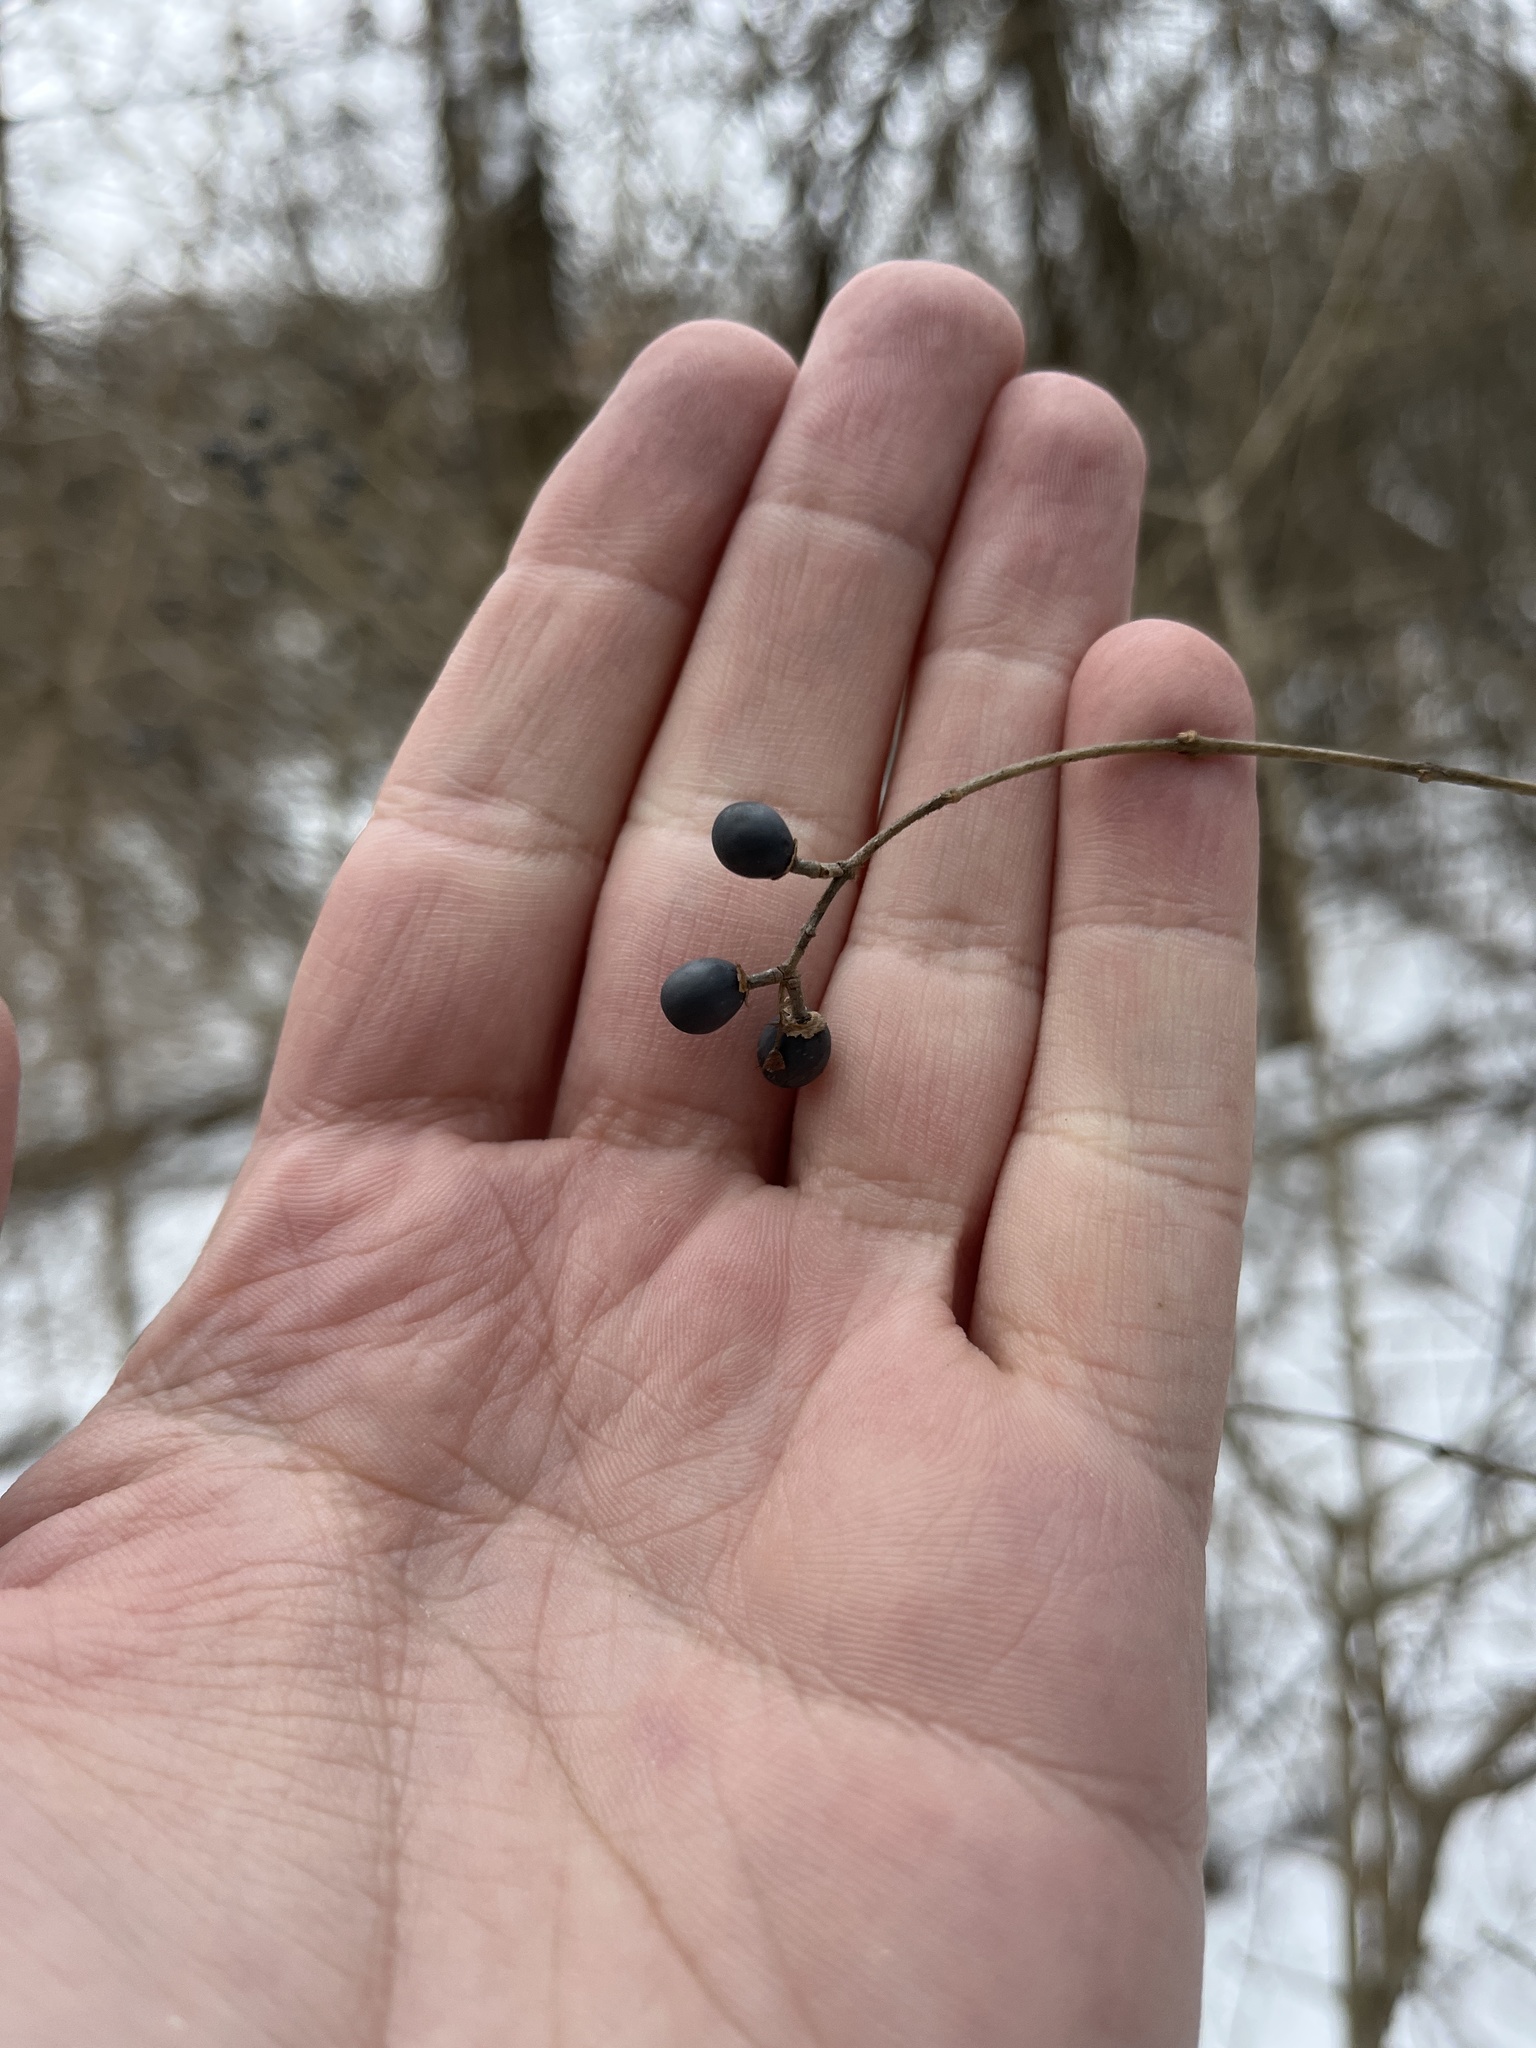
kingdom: Plantae
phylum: Tracheophyta
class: Magnoliopsida
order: Lamiales
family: Oleaceae
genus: Ligustrum
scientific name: Ligustrum obtusifolium
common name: Border privet
